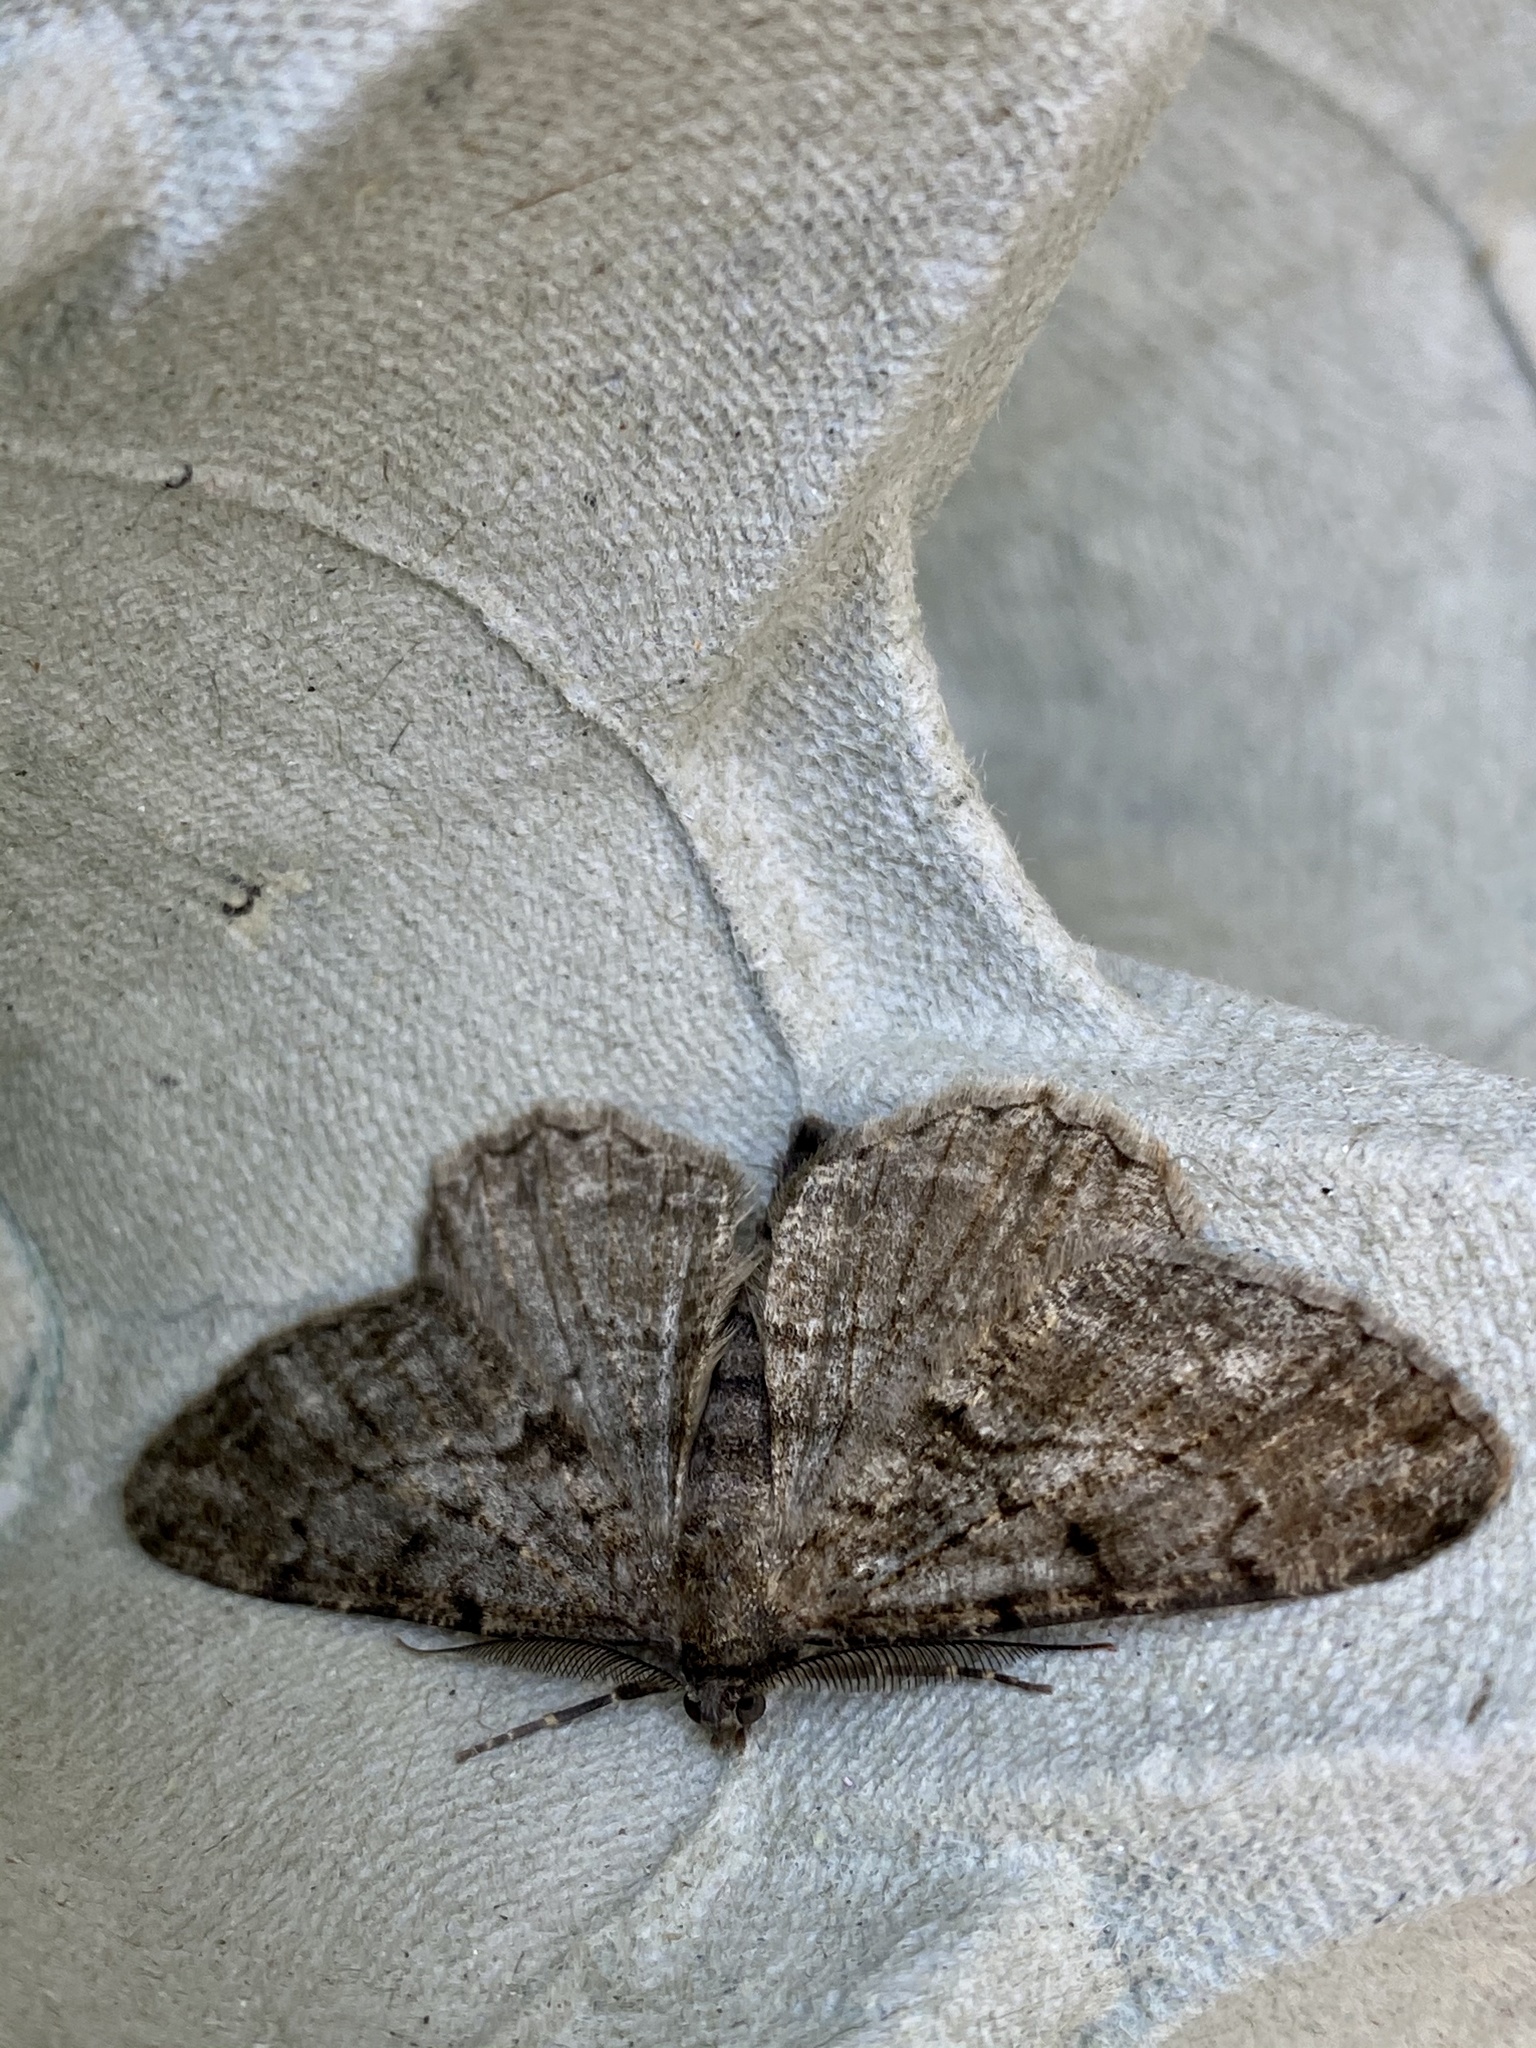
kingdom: Animalia
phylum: Arthropoda
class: Insecta
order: Lepidoptera
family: Geometridae
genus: Peribatodes
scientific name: Peribatodes rhomboidaria
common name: Willow beauty
